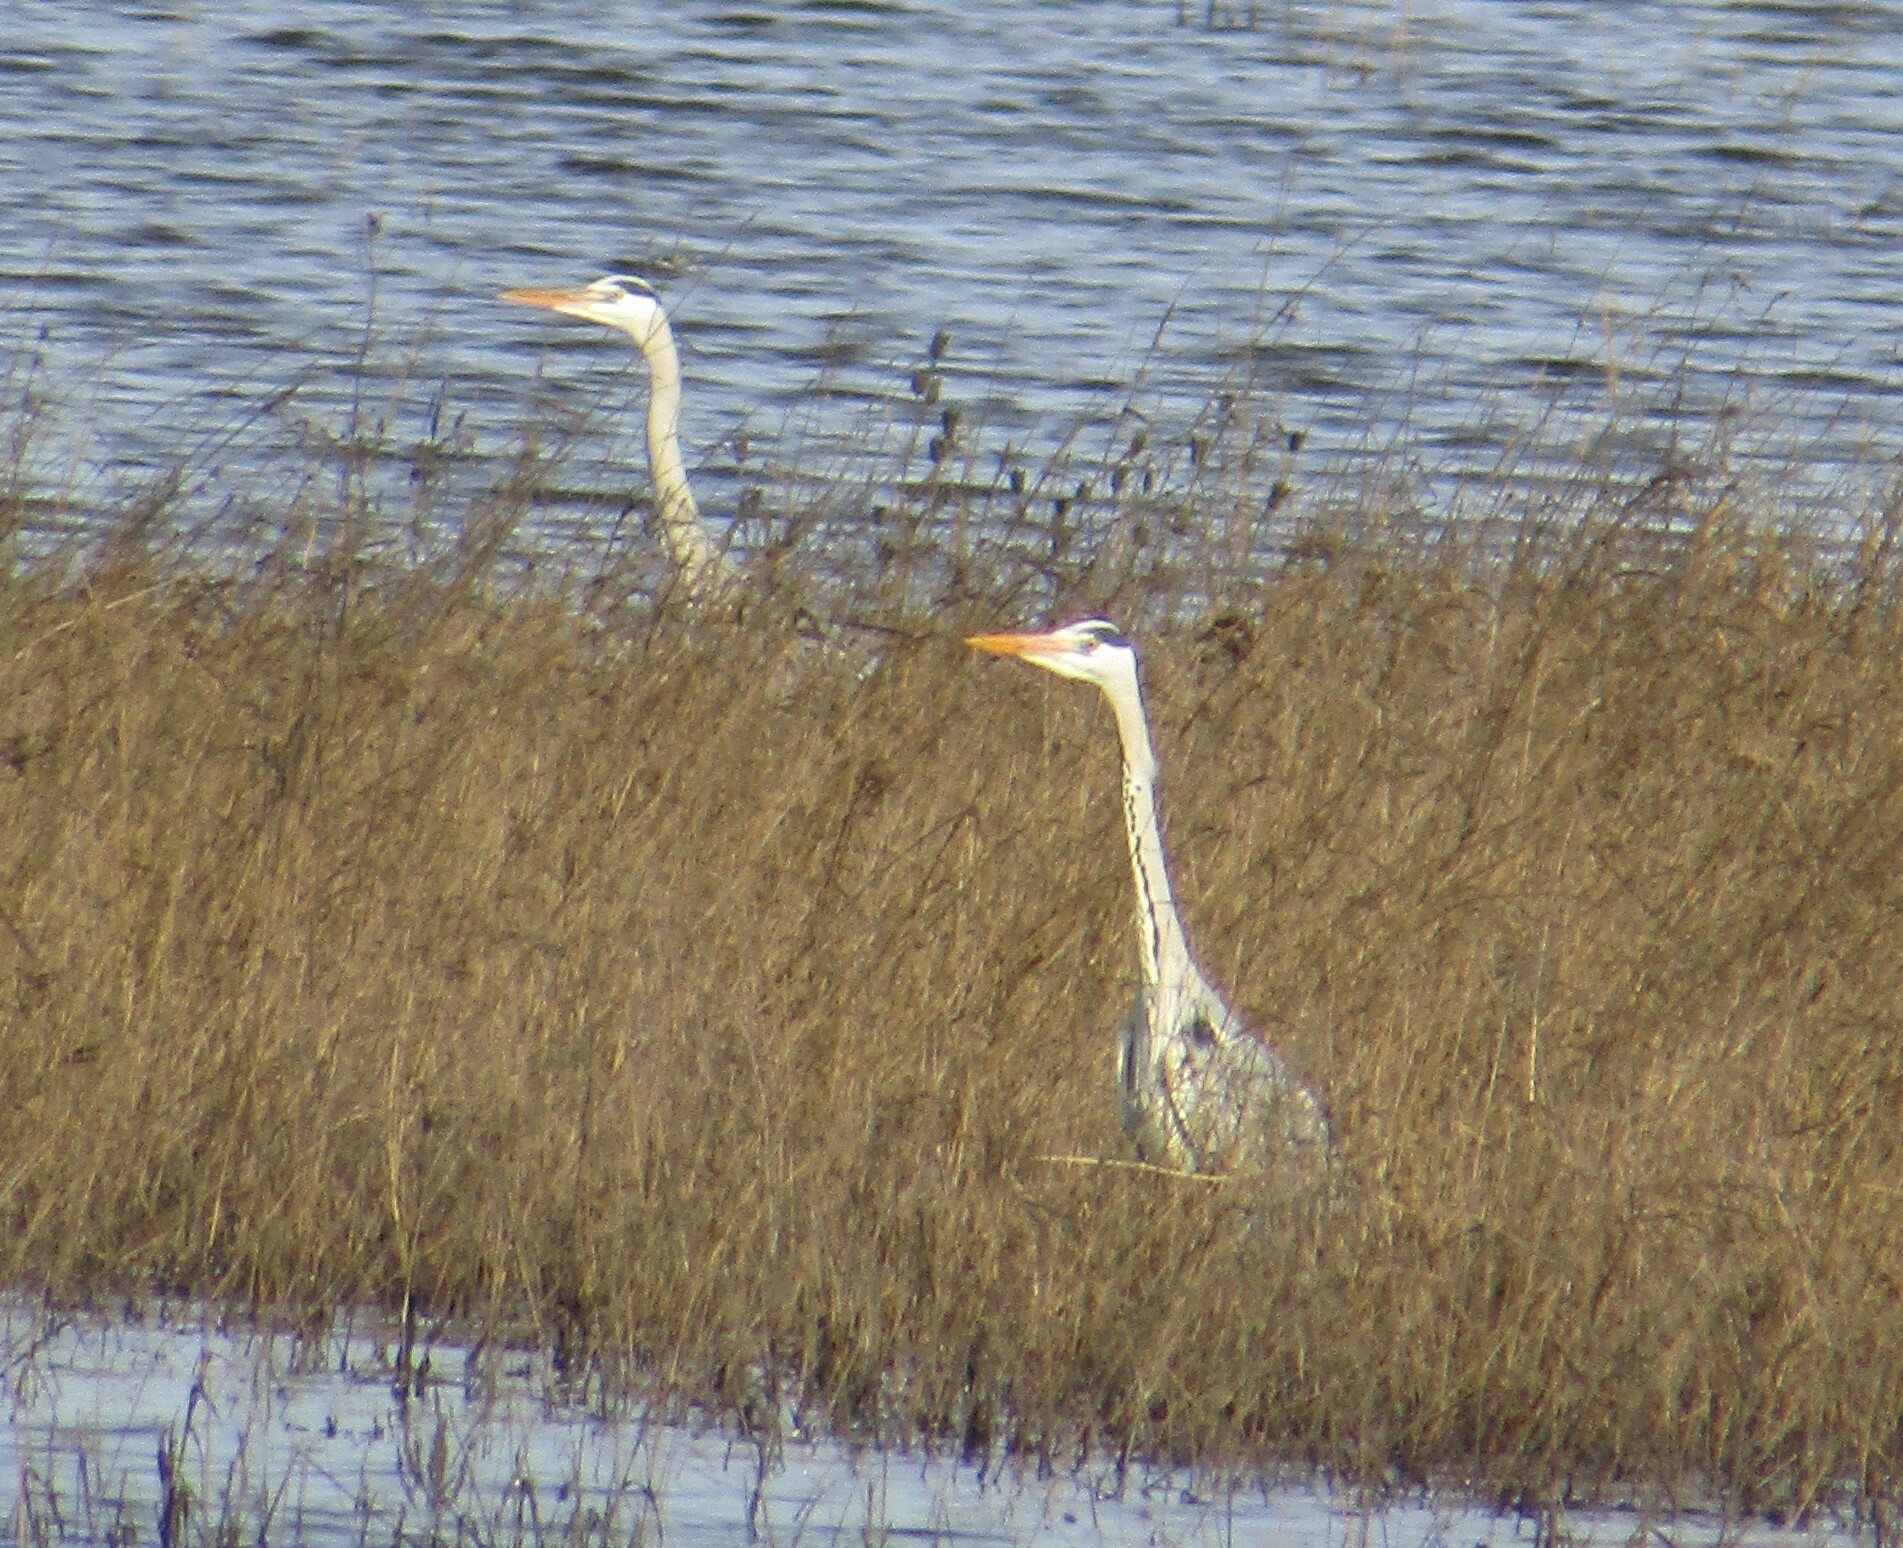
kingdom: Animalia
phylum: Chordata
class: Aves
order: Pelecaniformes
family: Ardeidae
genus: Ardea
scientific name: Ardea cinerea
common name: Grey heron
